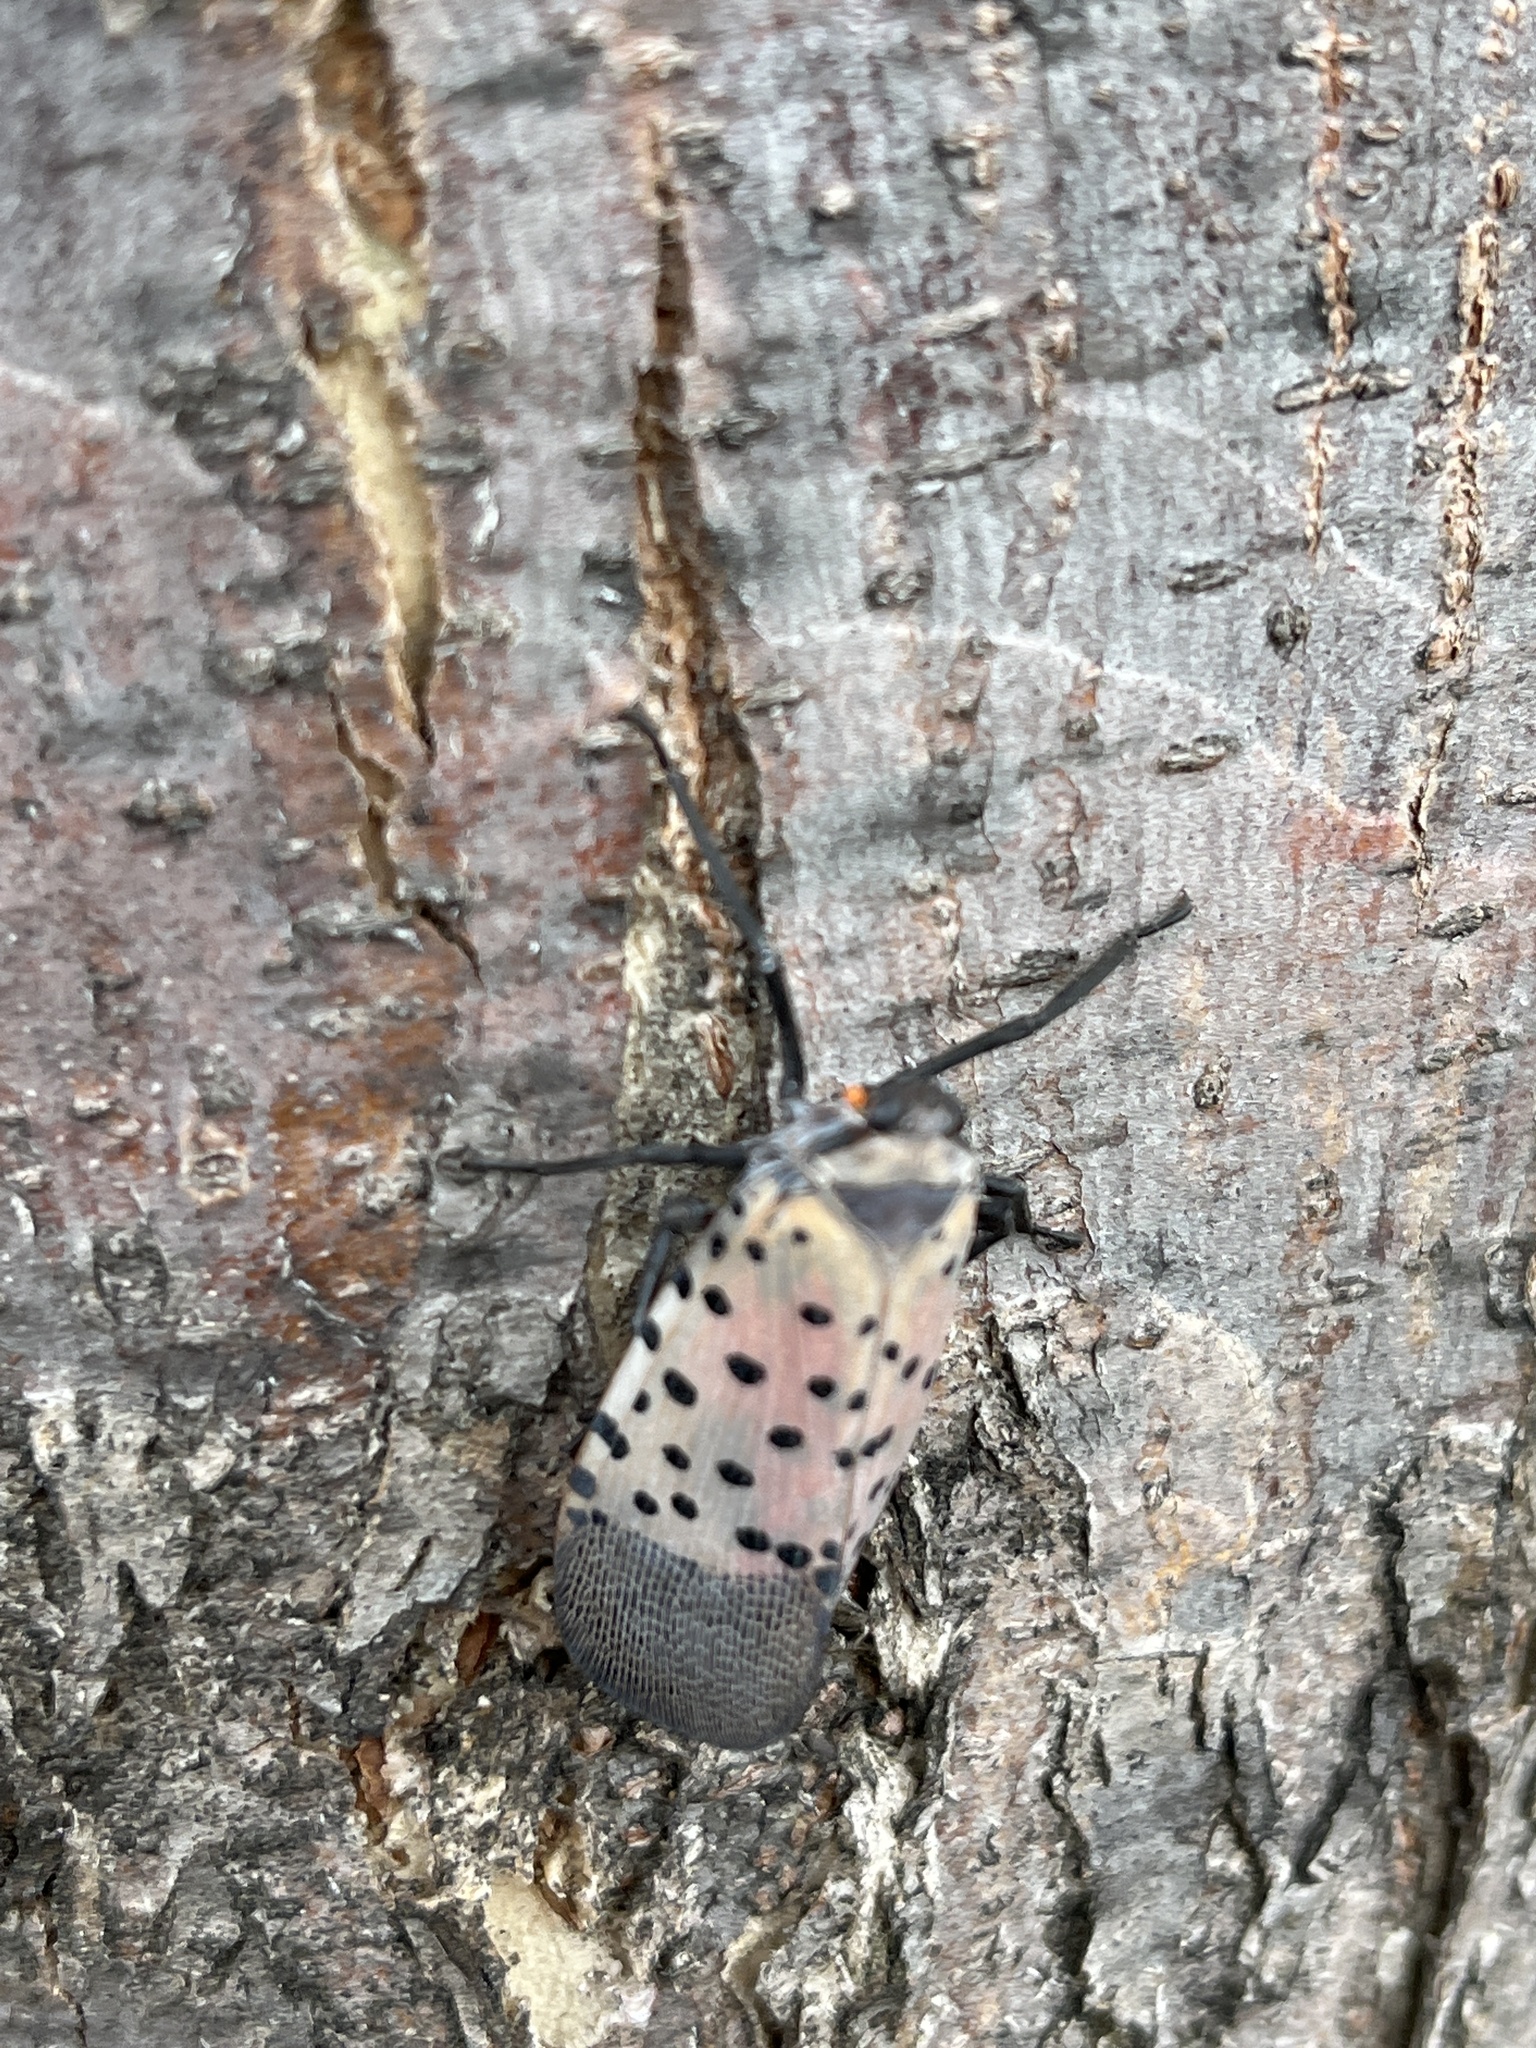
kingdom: Animalia
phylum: Arthropoda
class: Insecta
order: Hemiptera
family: Fulgoridae
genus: Lycorma
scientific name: Lycorma delicatula
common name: Spotted lanternfly
